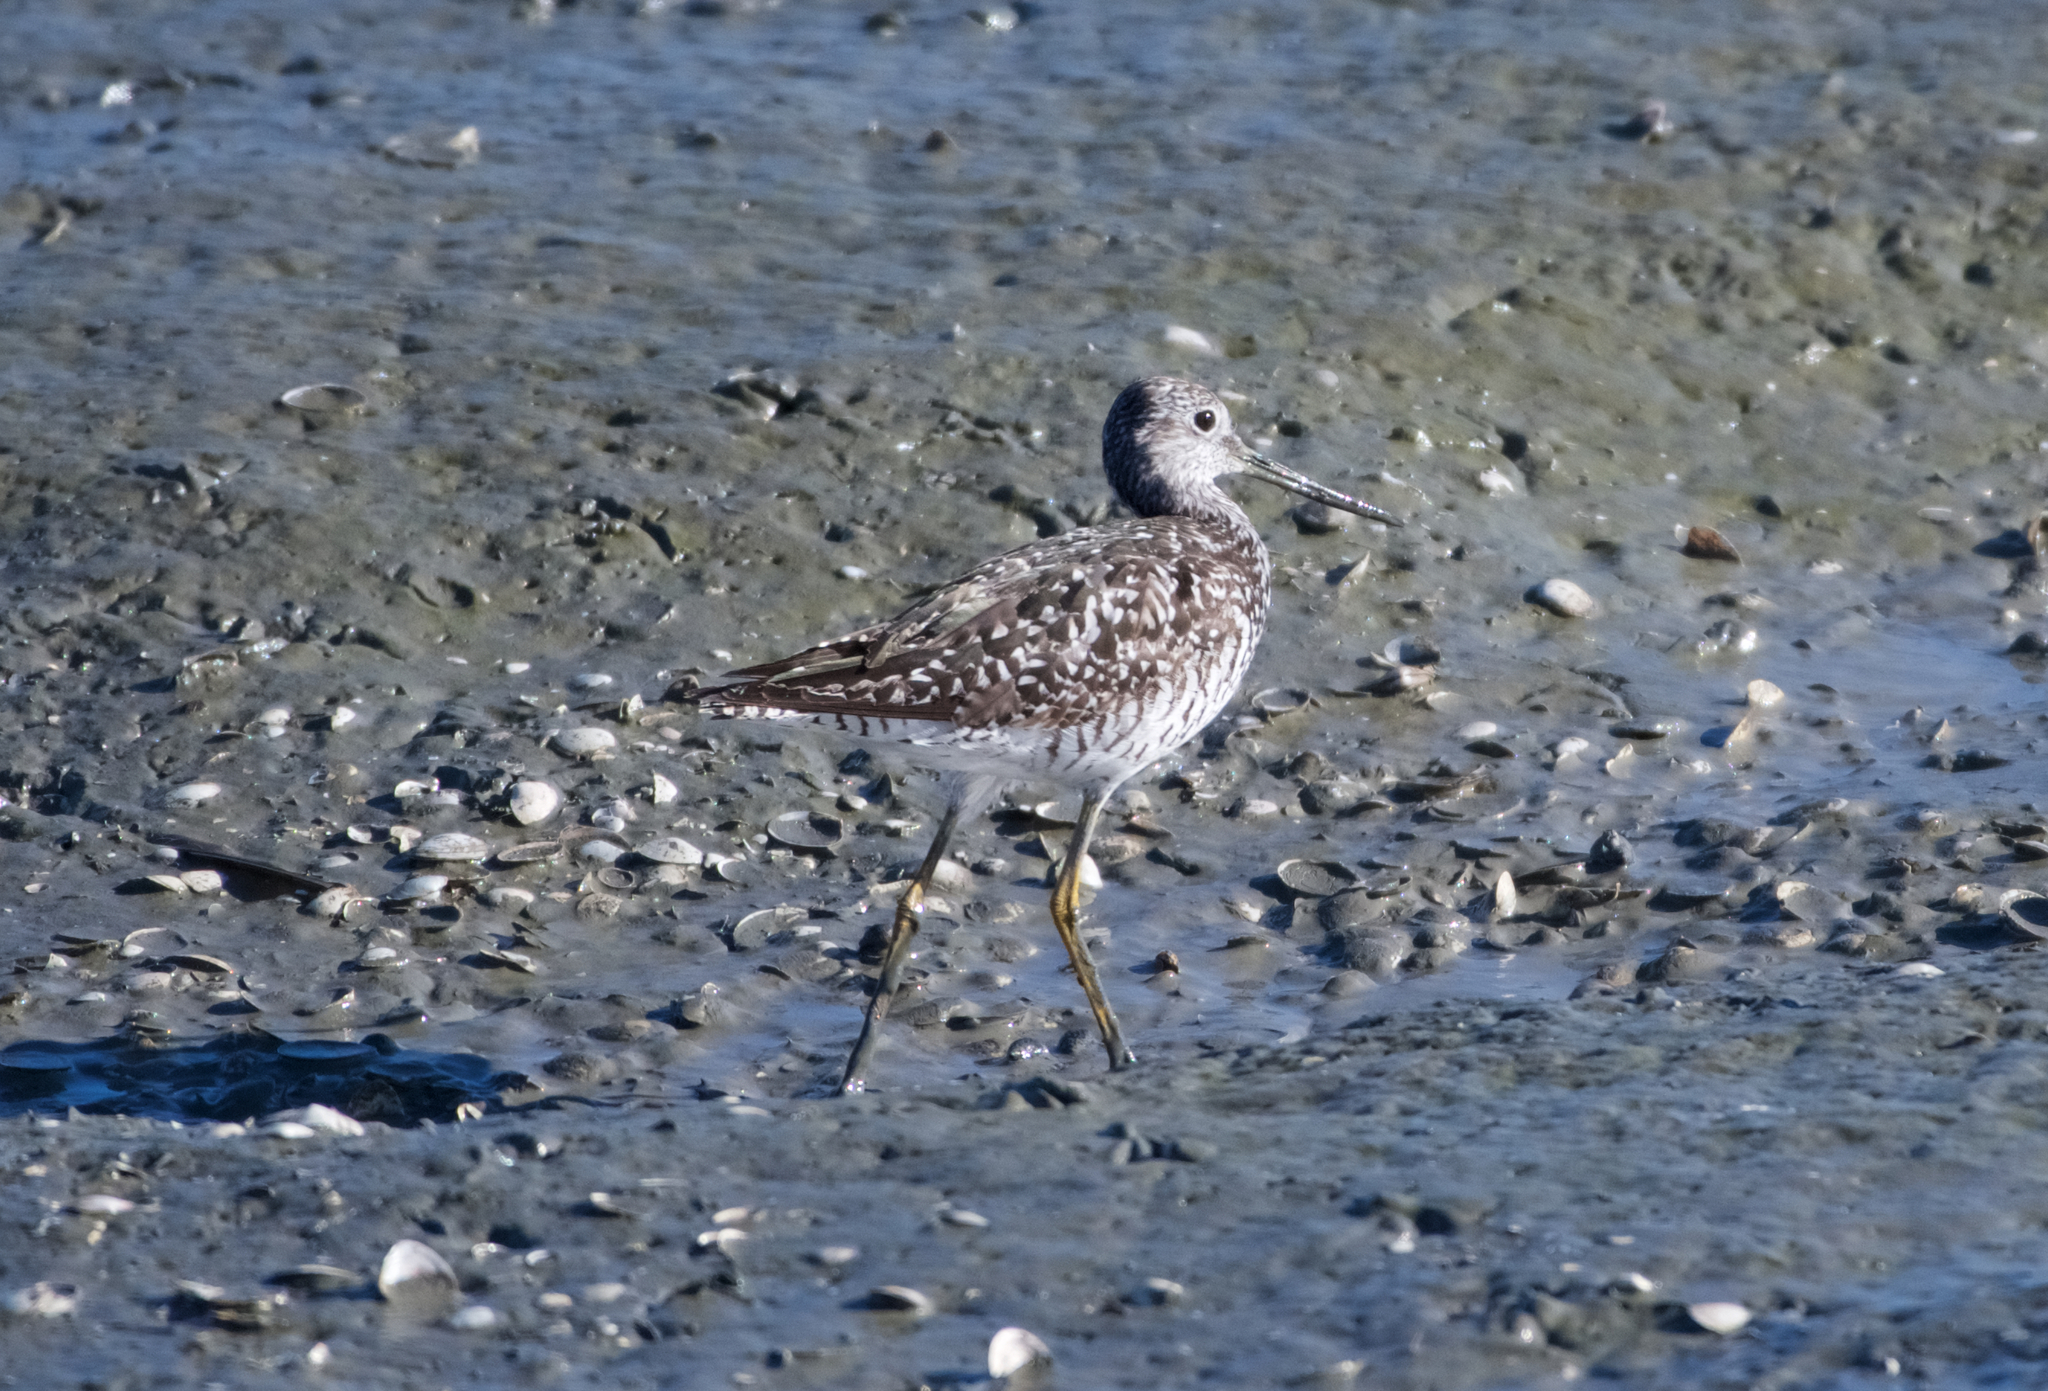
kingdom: Animalia
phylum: Chordata
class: Aves
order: Charadriiformes
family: Scolopacidae
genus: Tringa
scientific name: Tringa melanoleuca
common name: Greater yellowlegs
